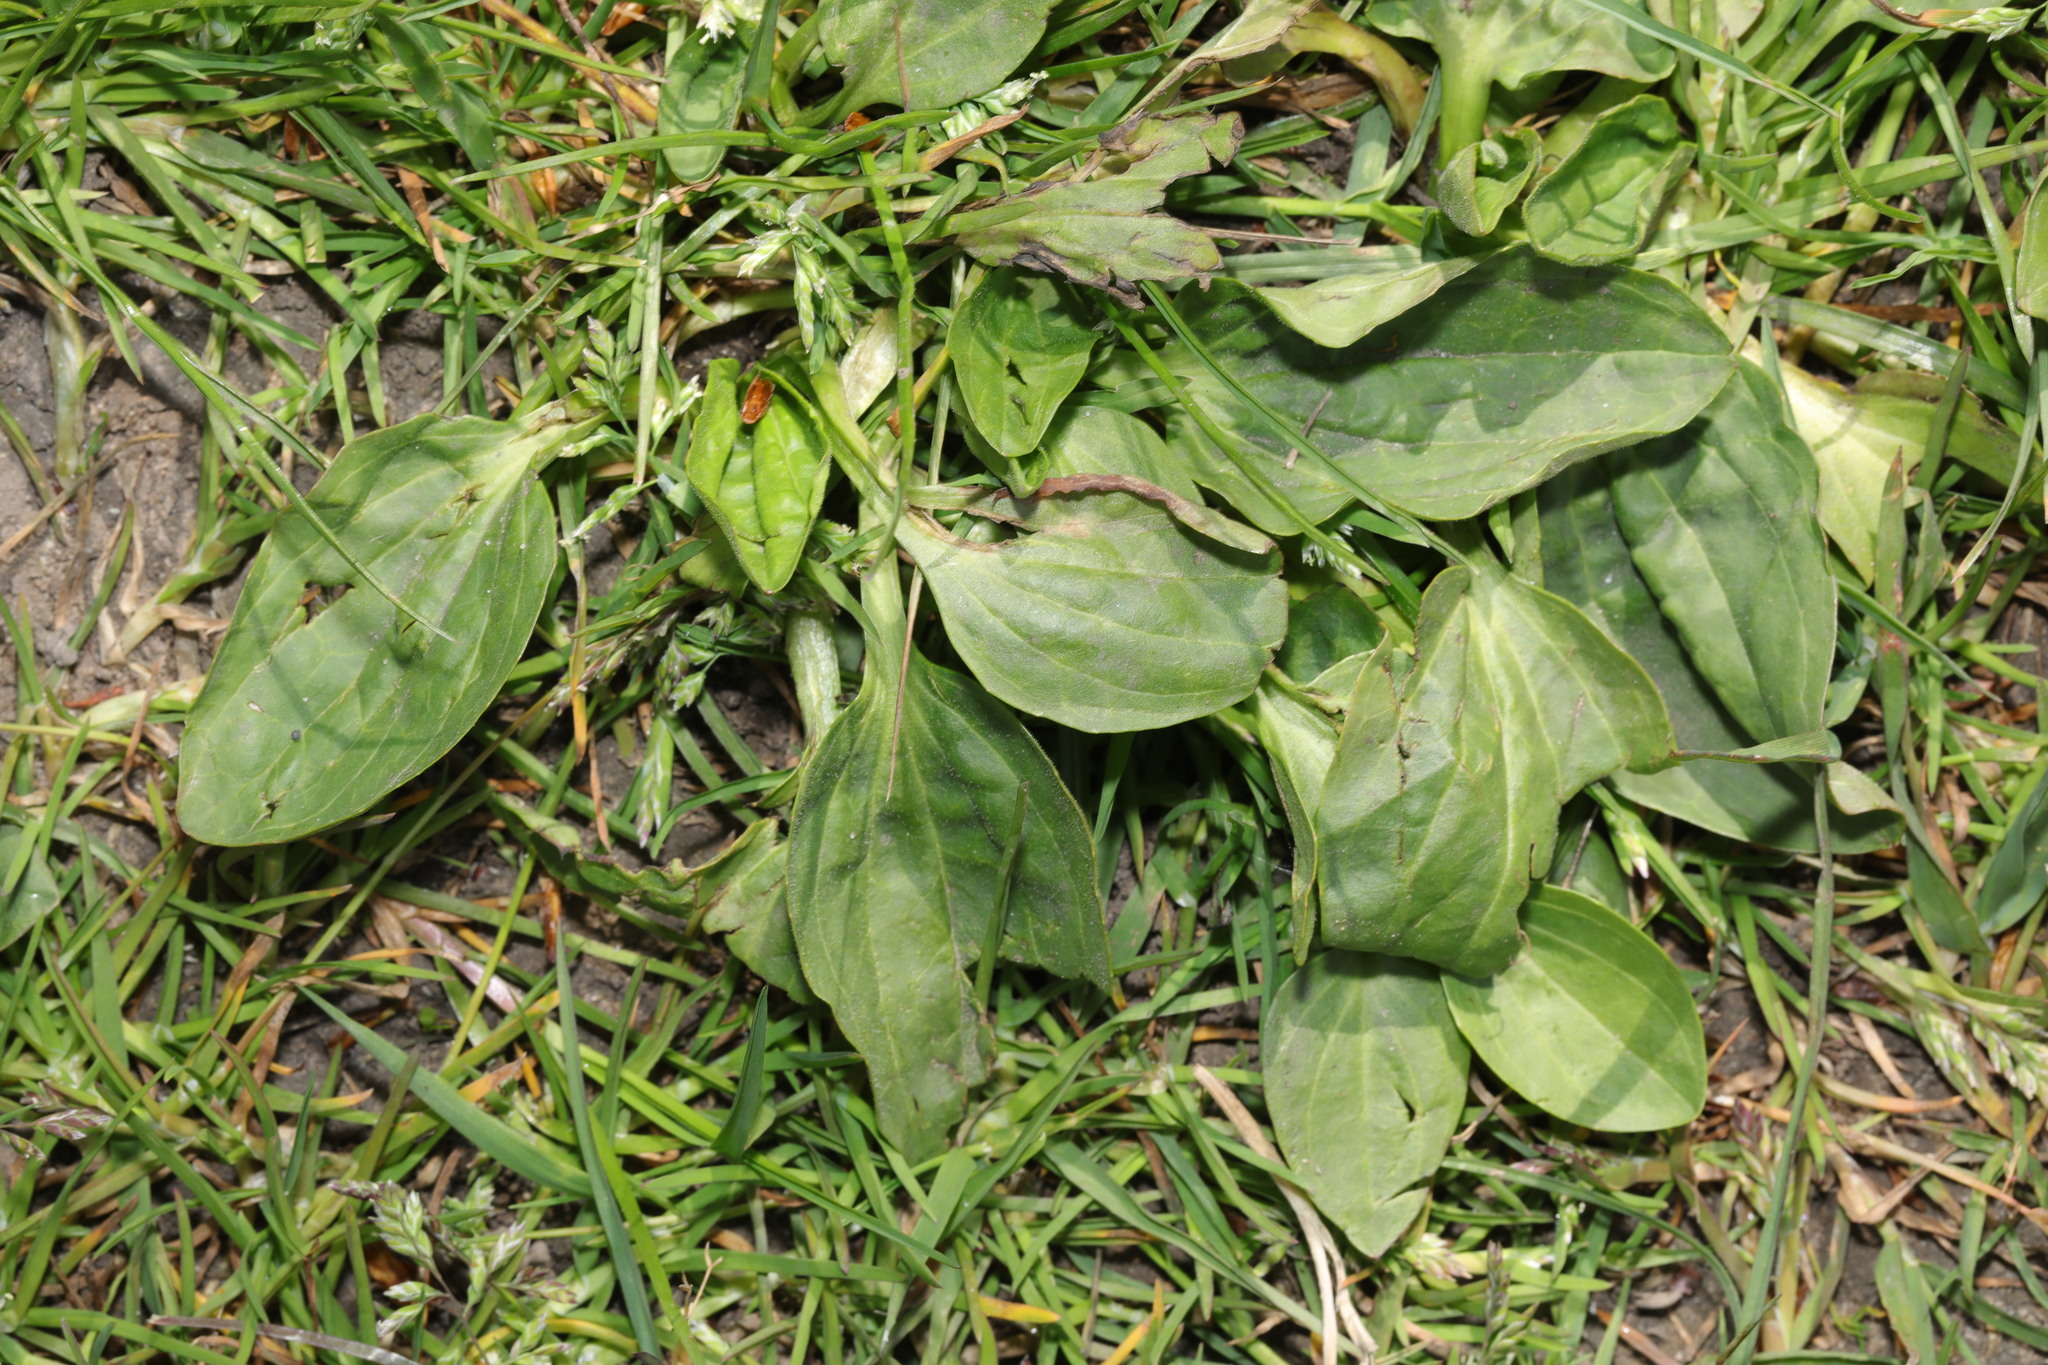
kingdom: Plantae
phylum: Tracheophyta
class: Magnoliopsida
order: Lamiales
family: Plantaginaceae
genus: Plantago
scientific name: Plantago major
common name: Common plantain
